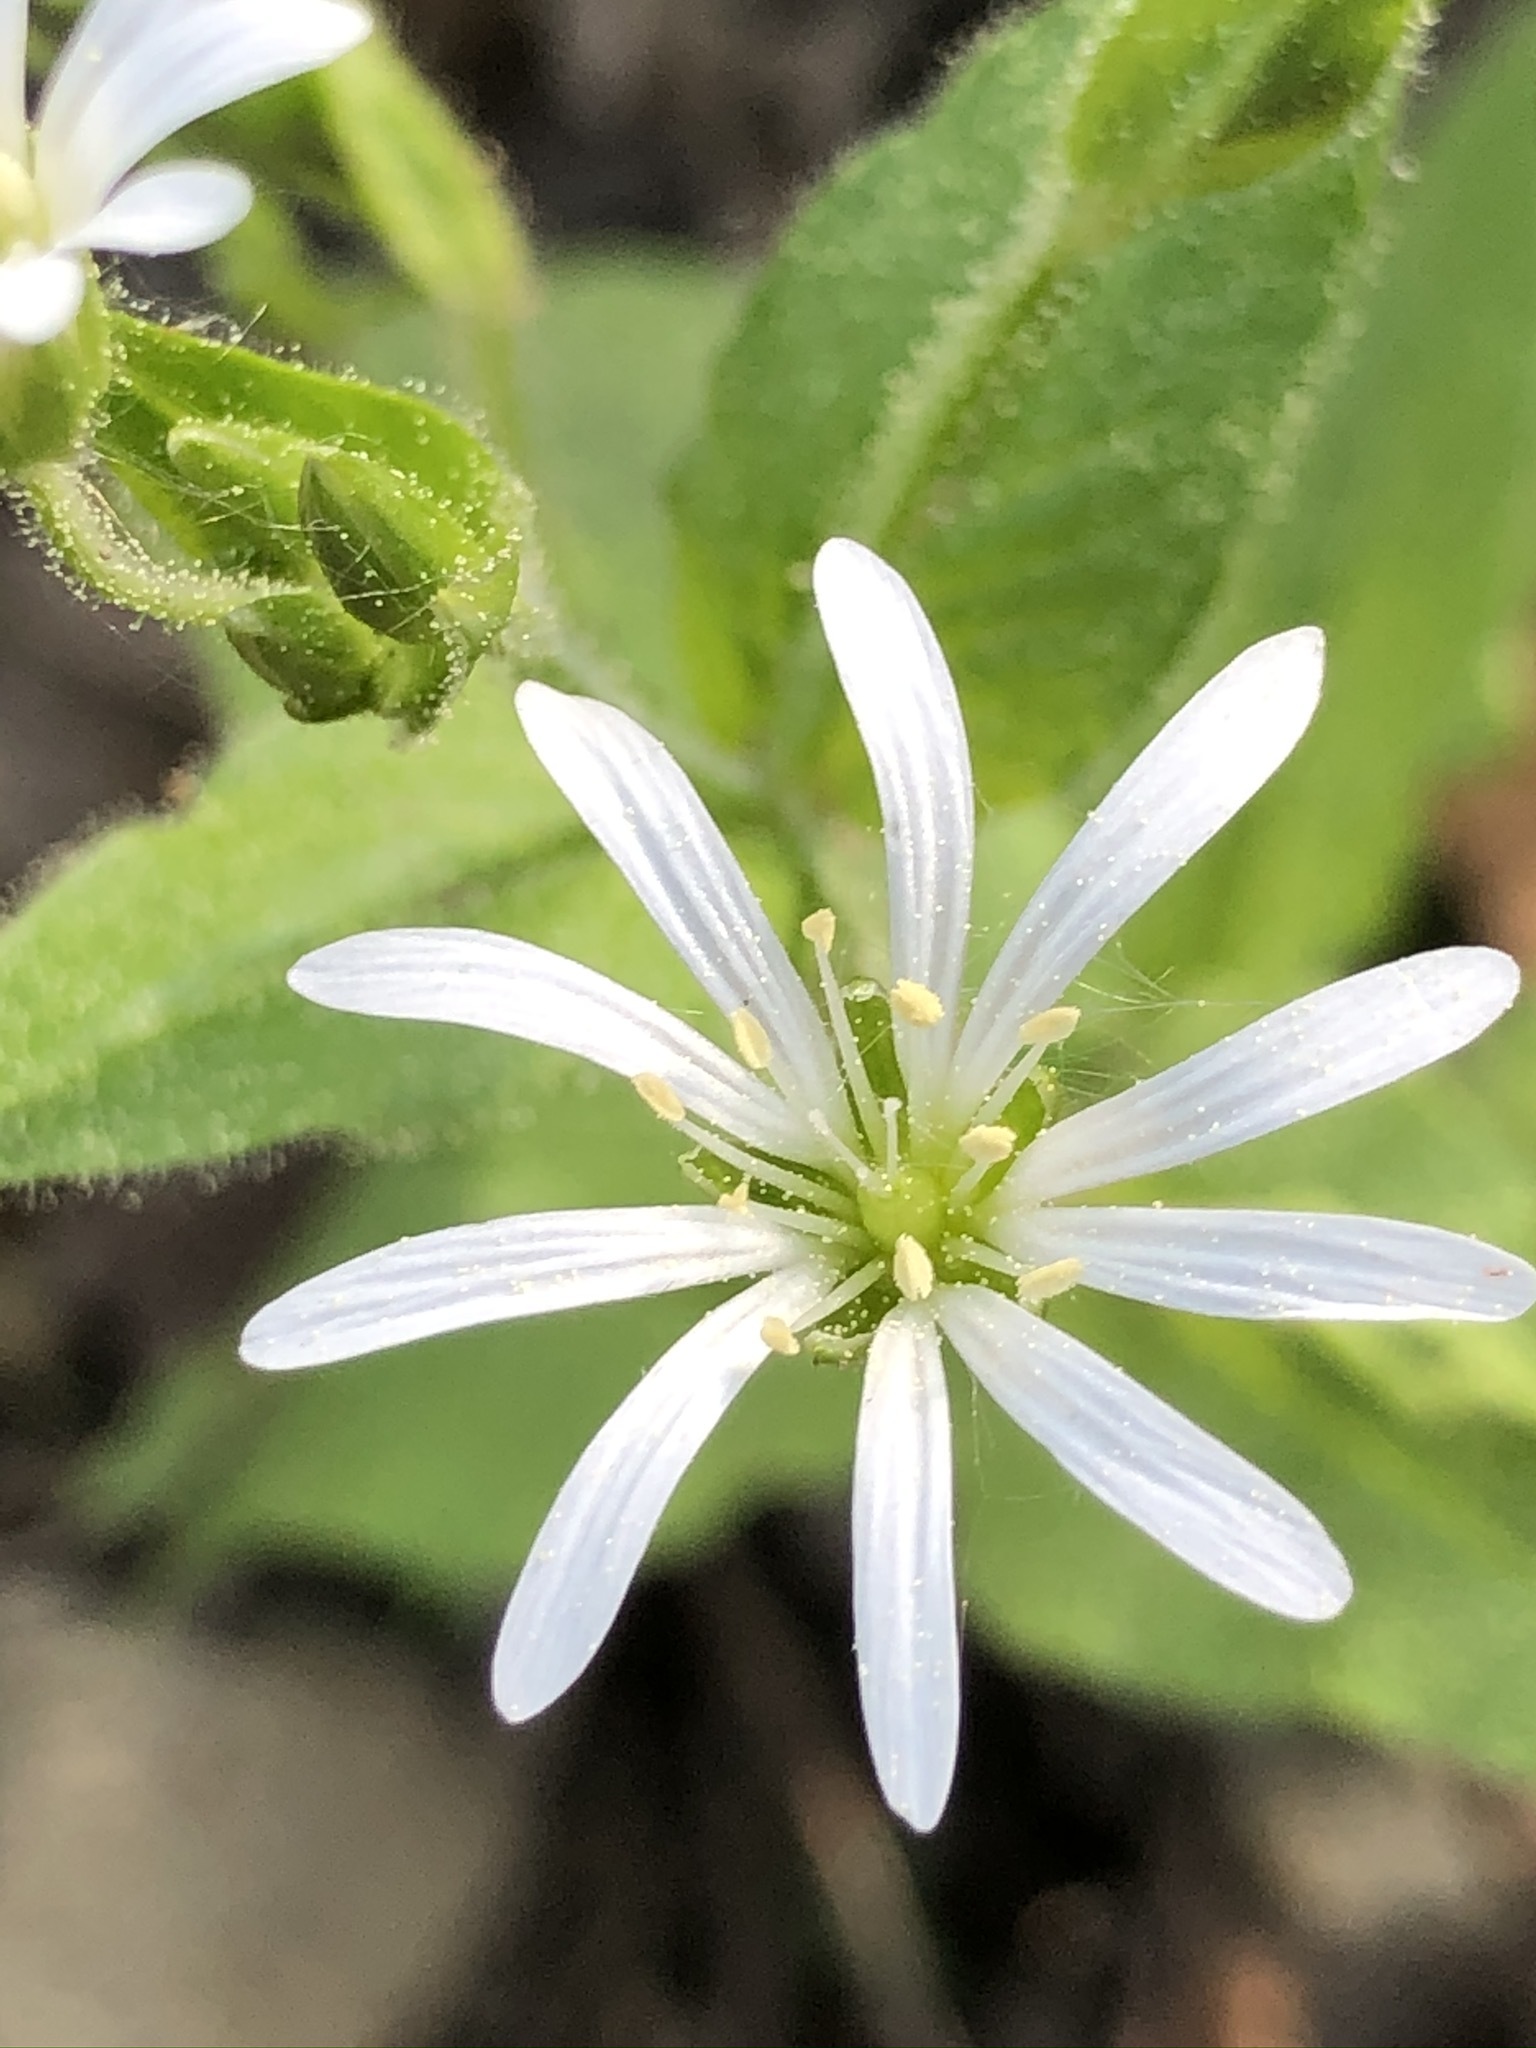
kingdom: Plantae
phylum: Tracheophyta
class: Magnoliopsida
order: Caryophyllales
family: Caryophyllaceae
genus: Stellaria
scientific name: Stellaria nemorum
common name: Wood stitchwort
